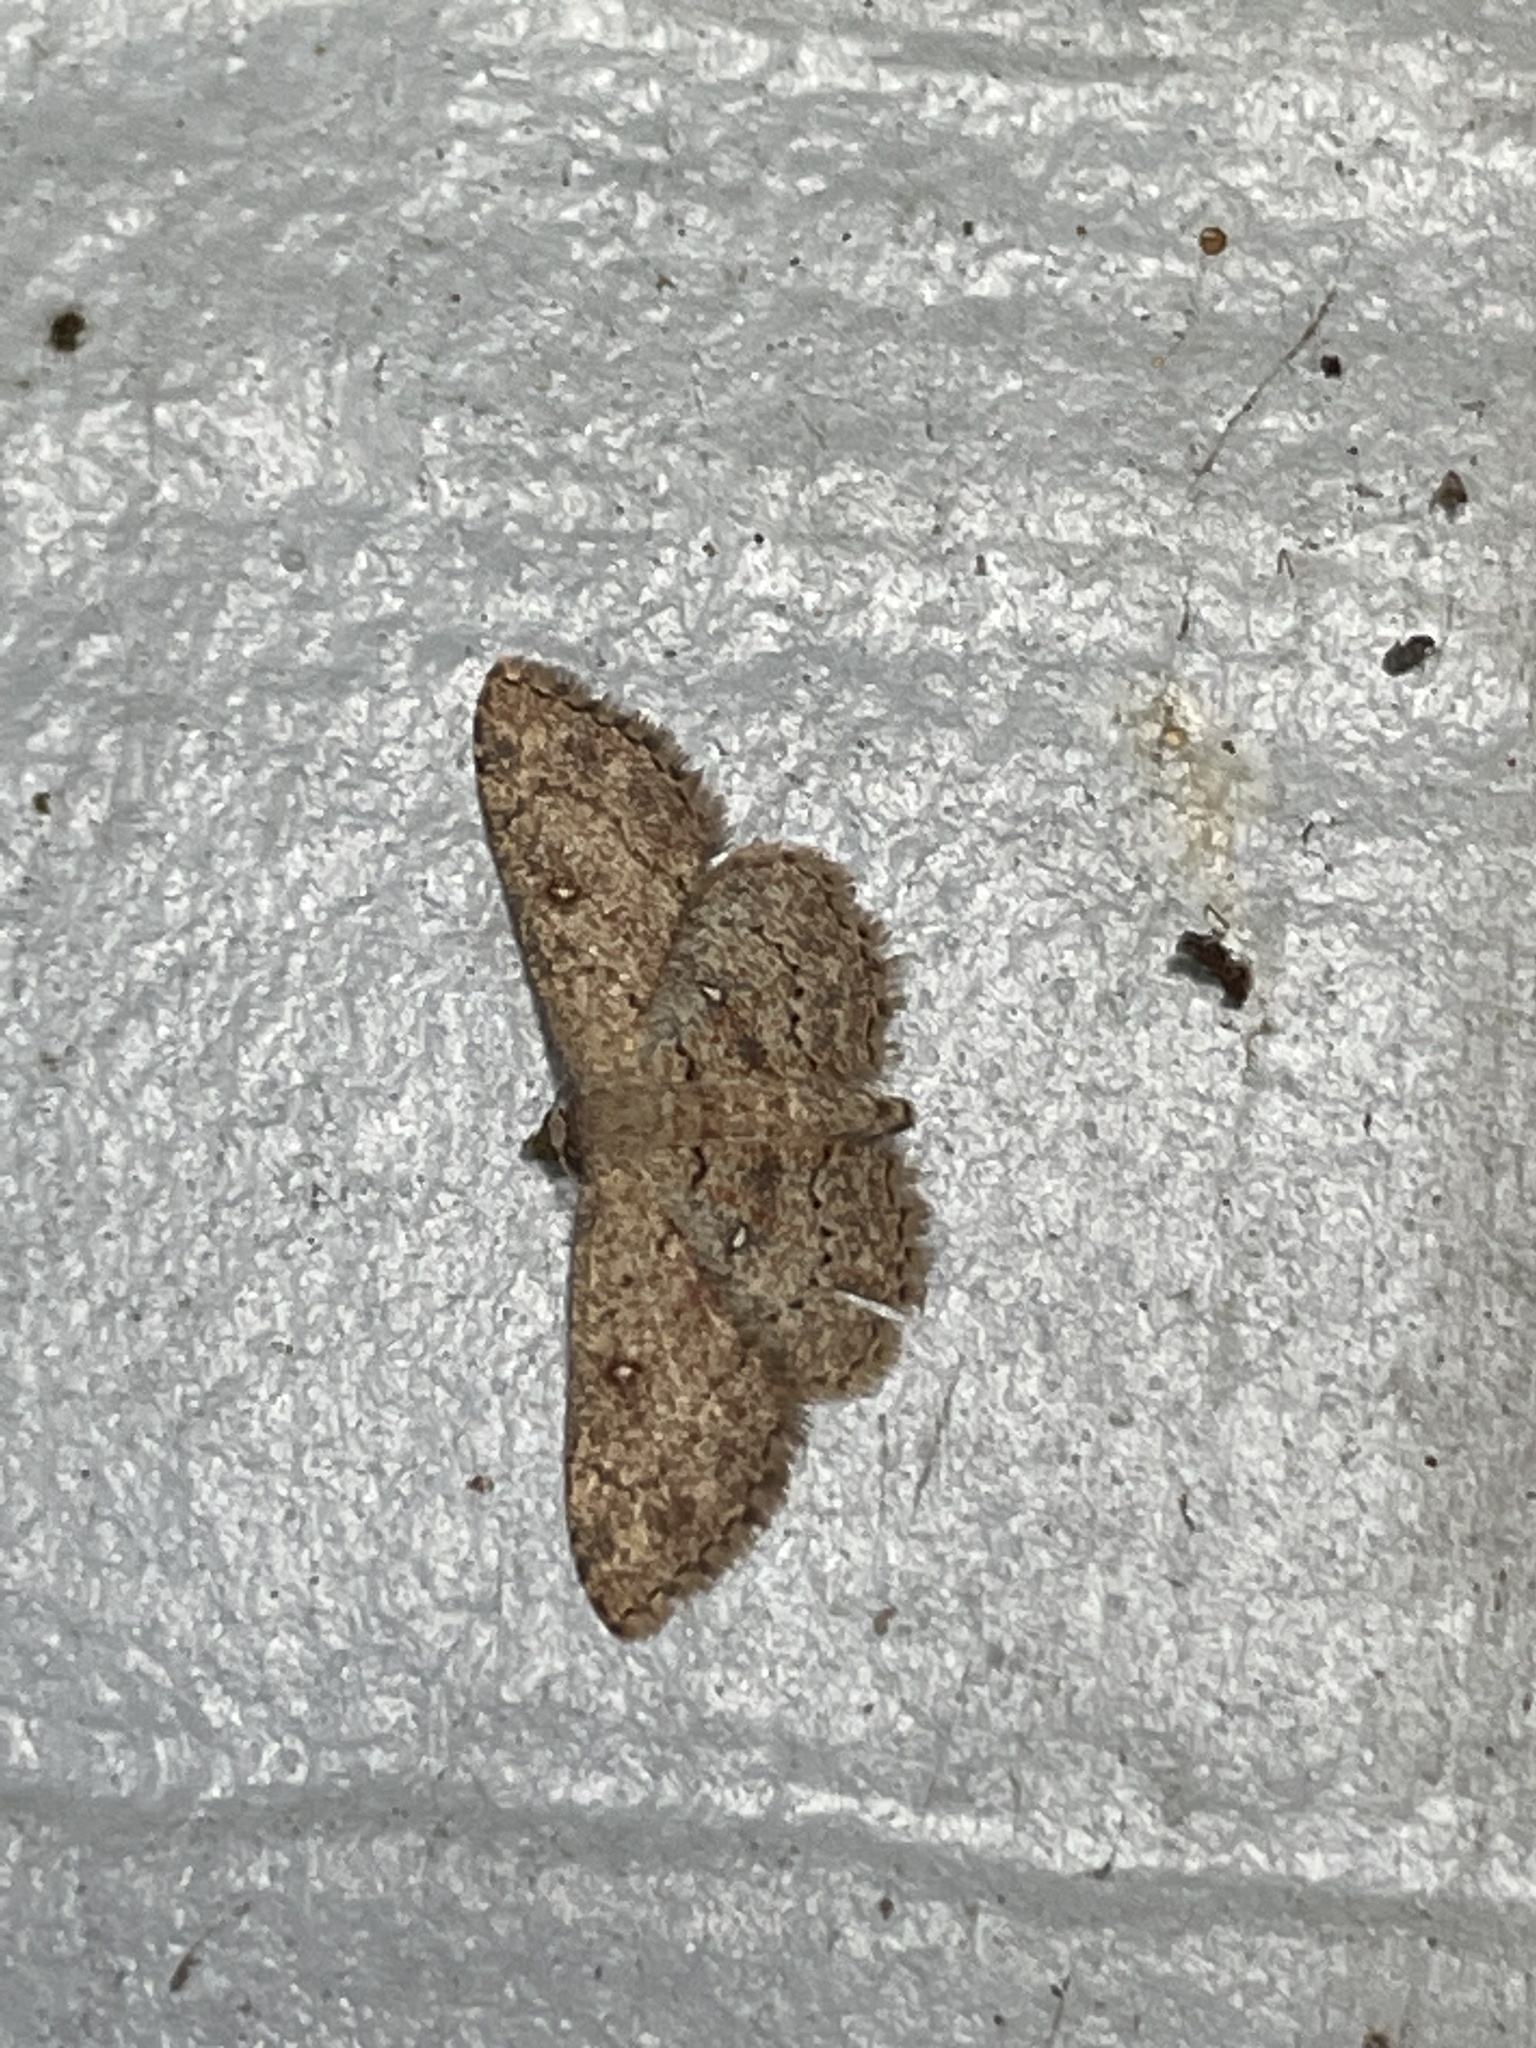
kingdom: Animalia
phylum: Arthropoda
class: Insecta
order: Lepidoptera
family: Geometridae
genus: Cyclophora
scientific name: Cyclophora nanaria
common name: Cankerworm
